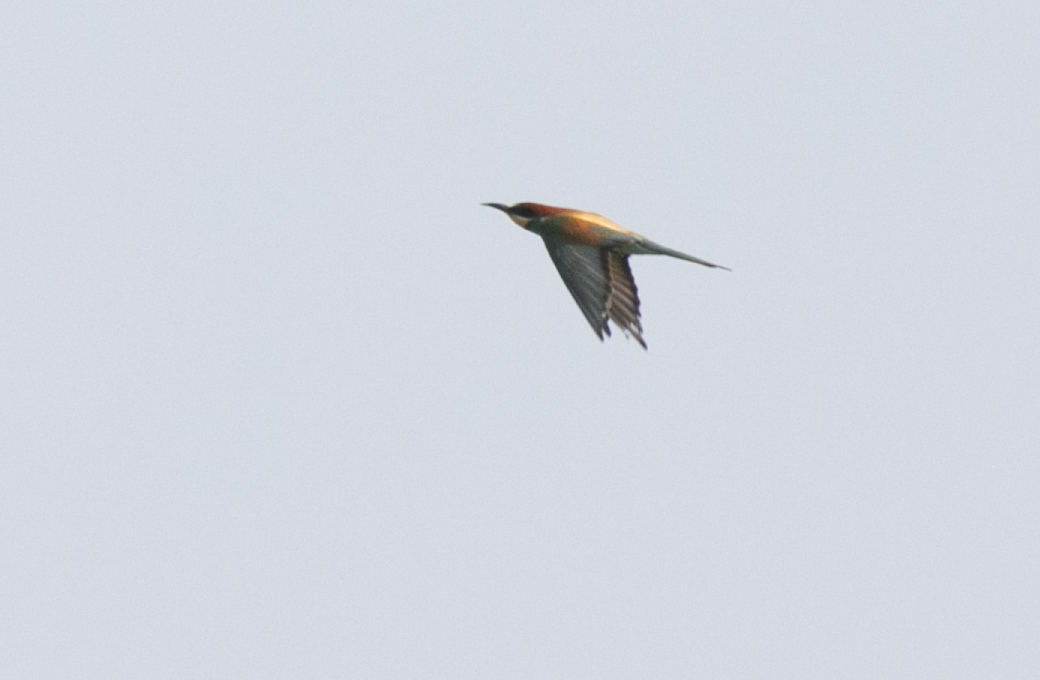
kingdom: Animalia
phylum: Chordata
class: Aves
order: Coraciiformes
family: Meropidae
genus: Merops
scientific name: Merops apiaster
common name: European bee-eater
